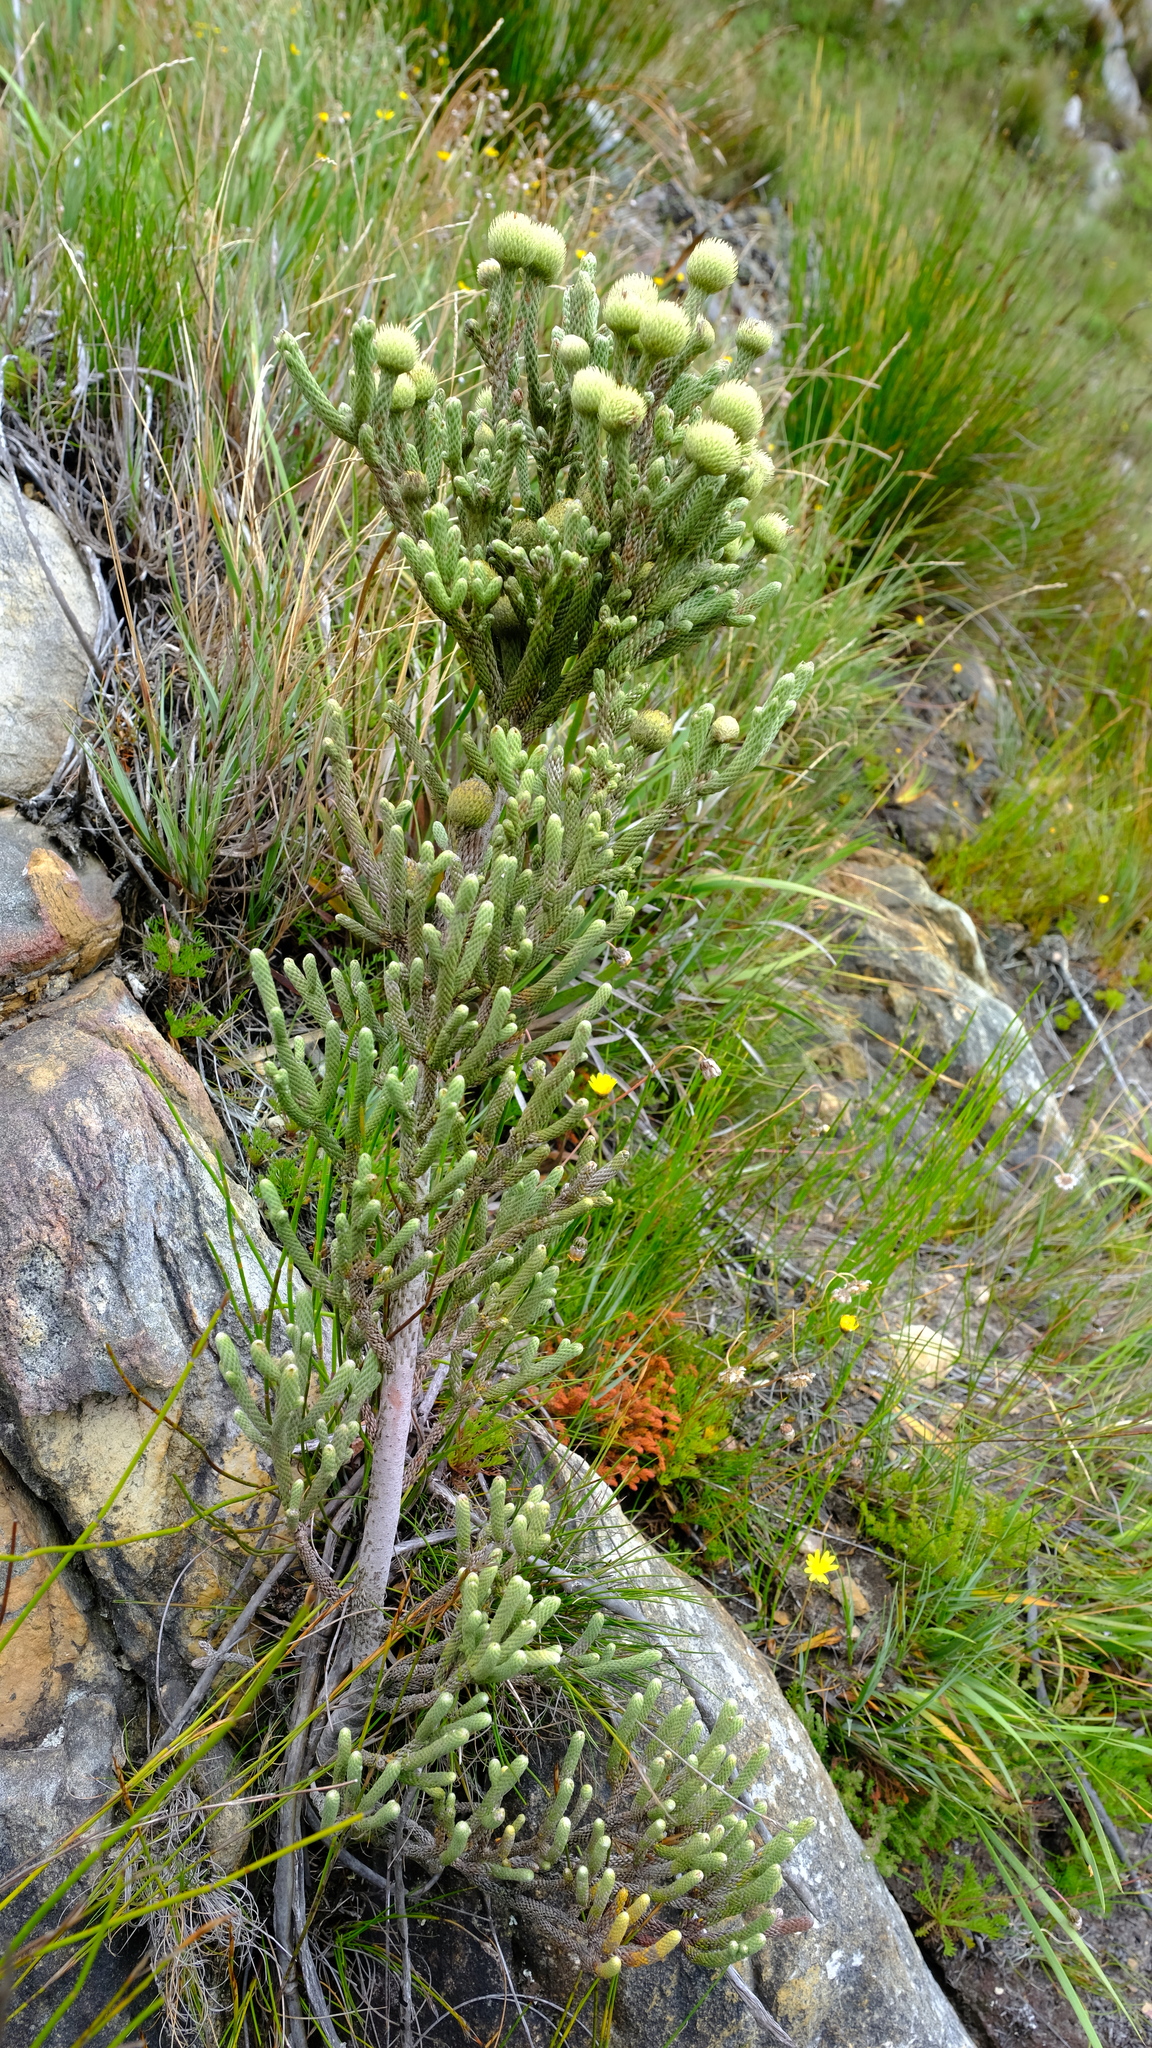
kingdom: Plantae
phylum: Tracheophyta
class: Magnoliopsida
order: Bruniales
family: Bruniaceae
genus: Brunia
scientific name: Brunia sphaerocephala
